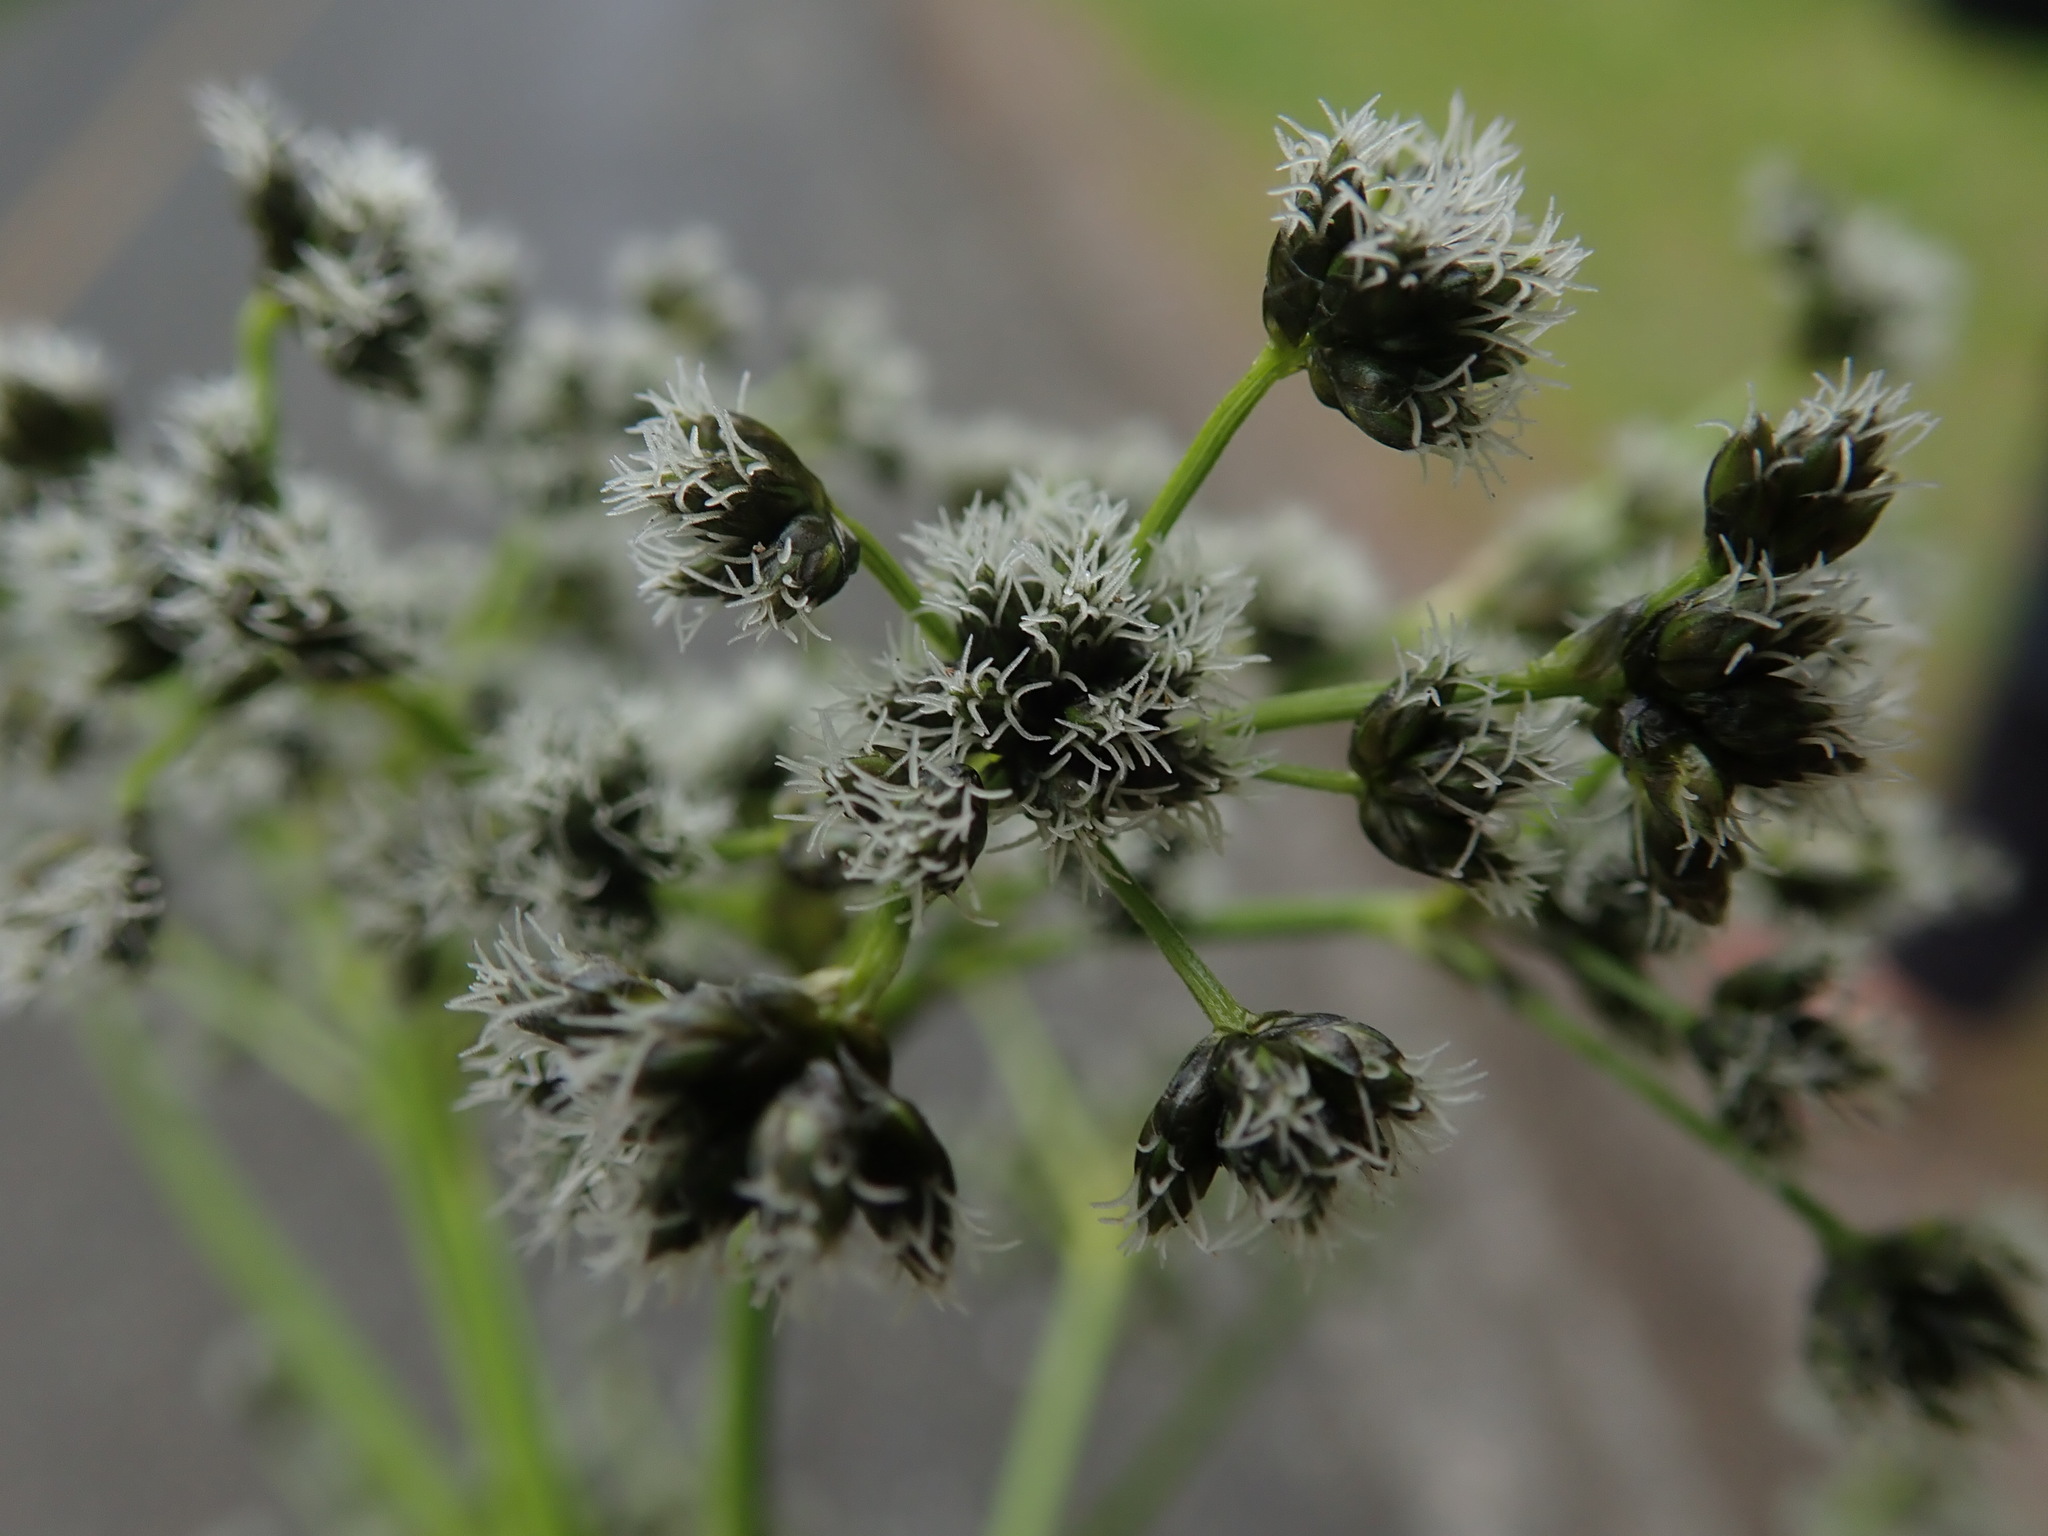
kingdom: Plantae
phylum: Tracheophyta
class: Liliopsida
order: Poales
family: Cyperaceae
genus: Scirpus
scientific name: Scirpus microcarpus
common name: Panicled bulrush
